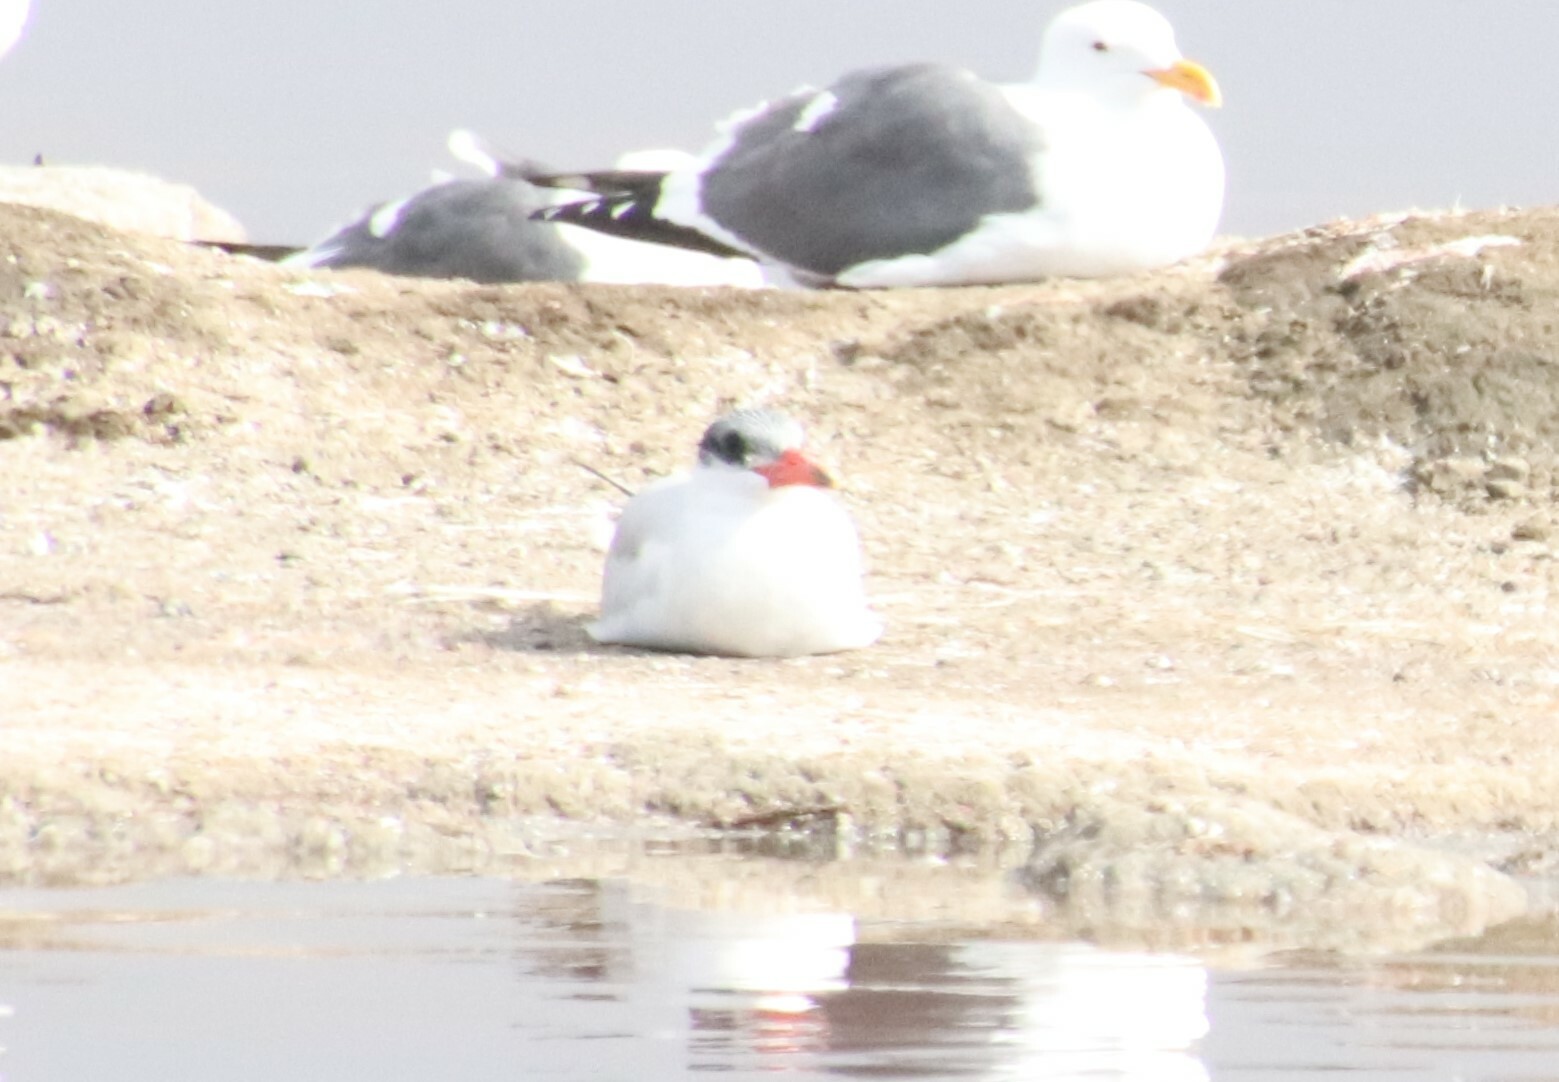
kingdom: Animalia
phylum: Chordata
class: Aves
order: Charadriiformes
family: Laridae
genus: Hydroprogne
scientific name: Hydroprogne caspia
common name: Caspian tern
